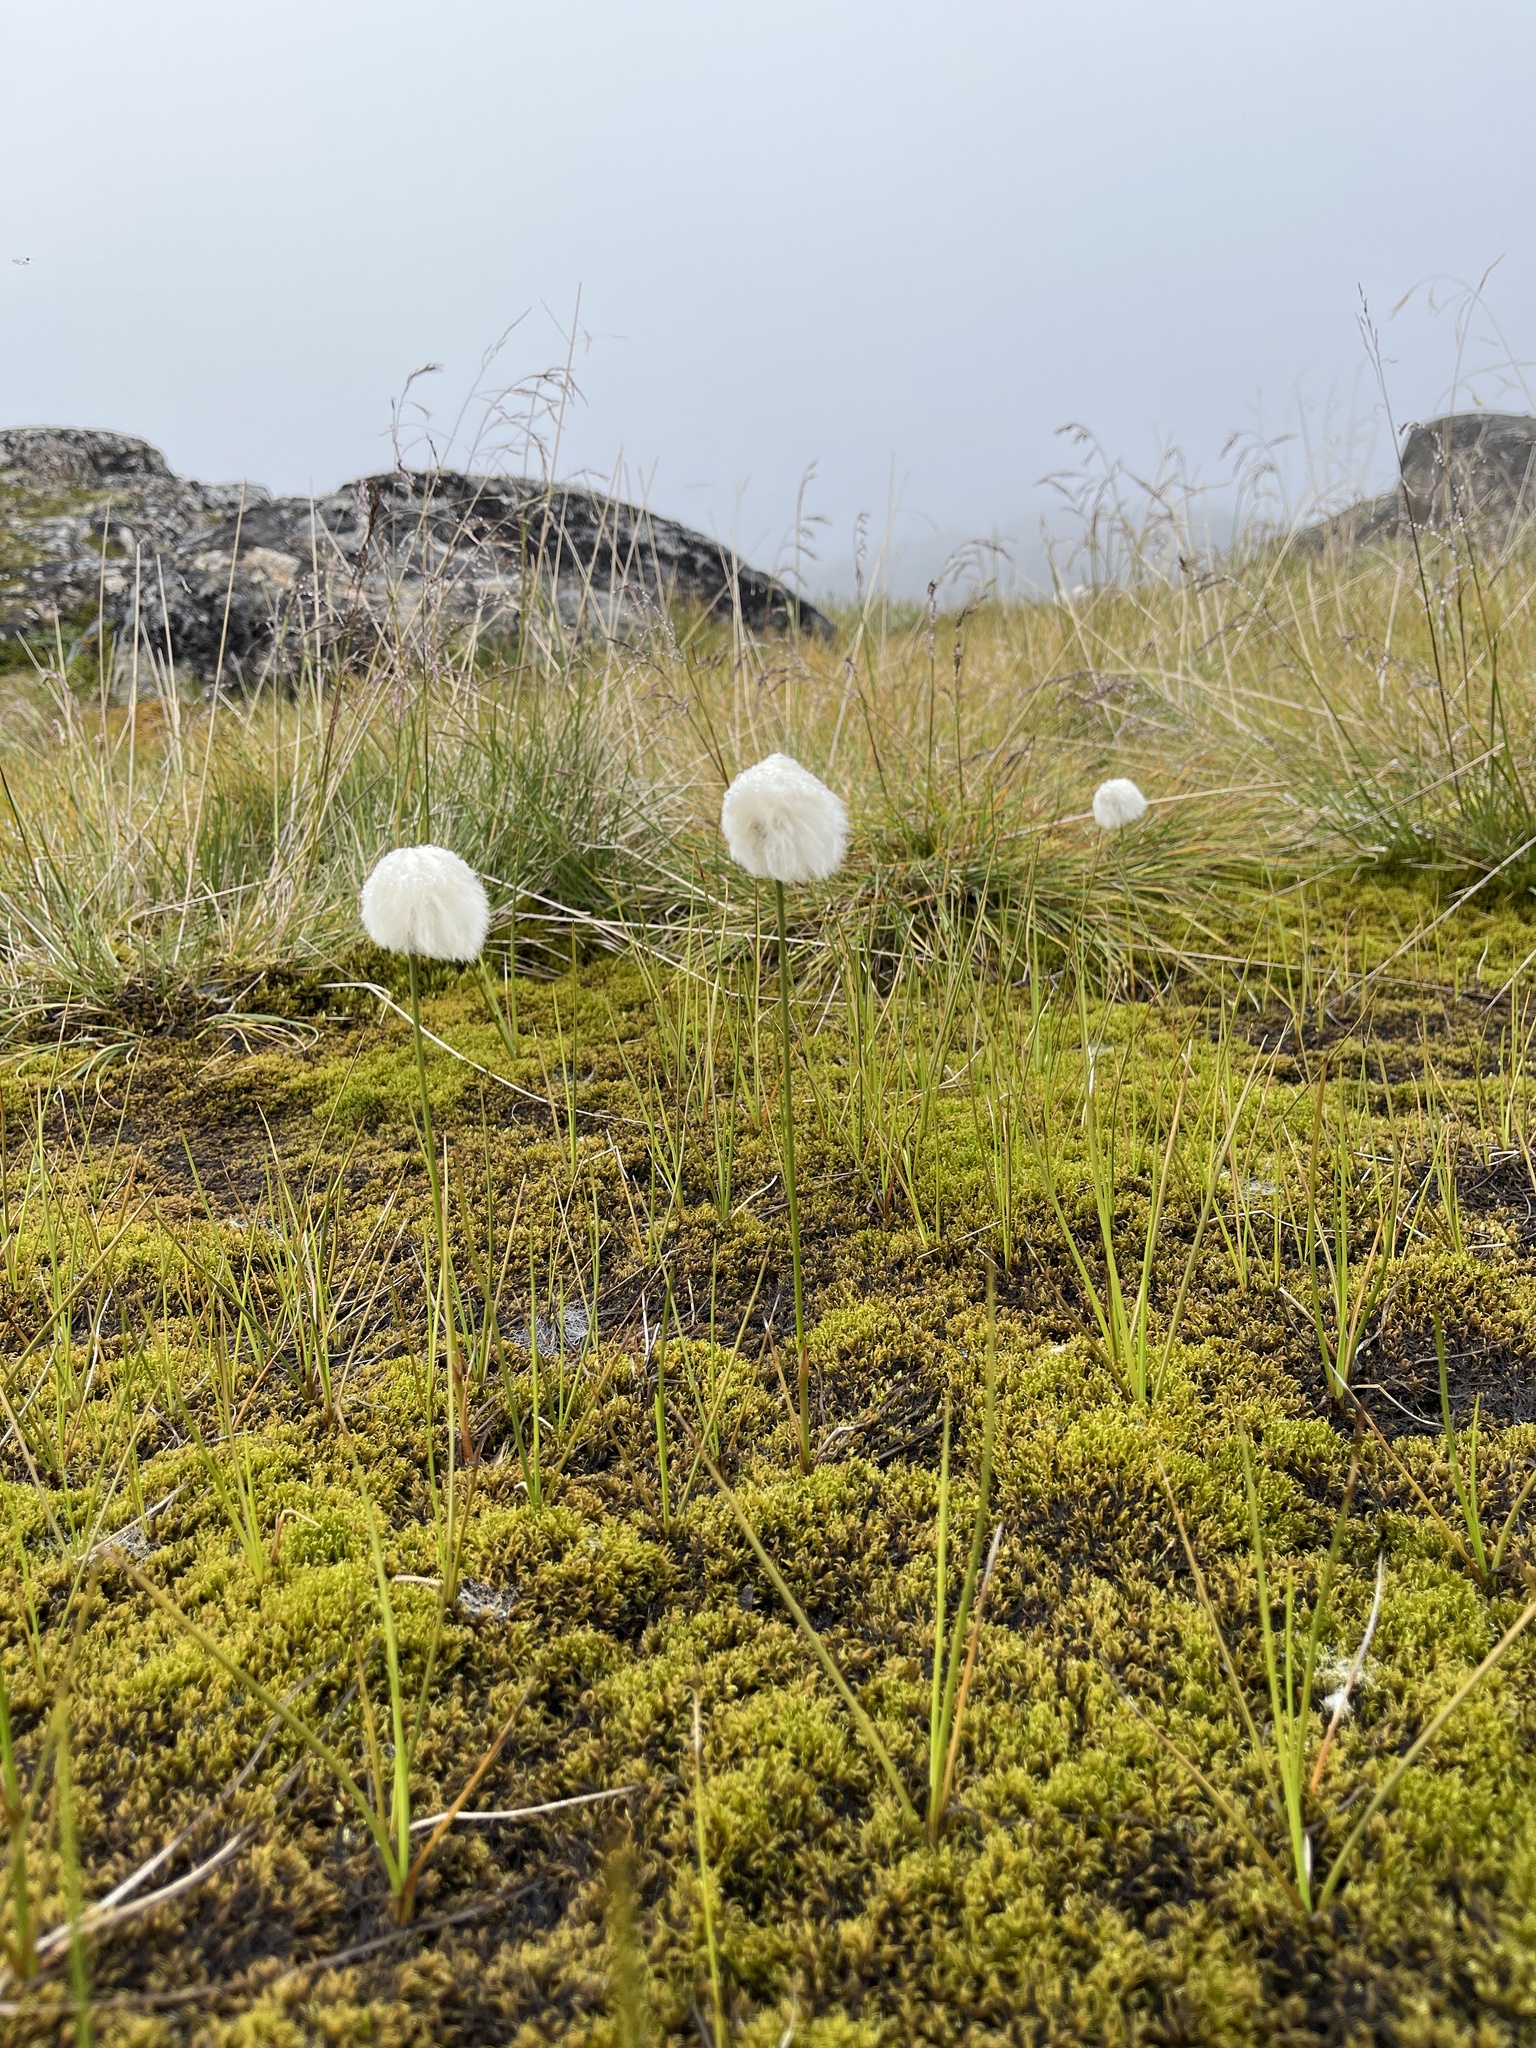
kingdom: Plantae
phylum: Tracheophyta
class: Liliopsida
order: Poales
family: Cyperaceae
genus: Eriophorum
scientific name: Eriophorum scheuchzeri
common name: Scheuchzer's cottongrass
